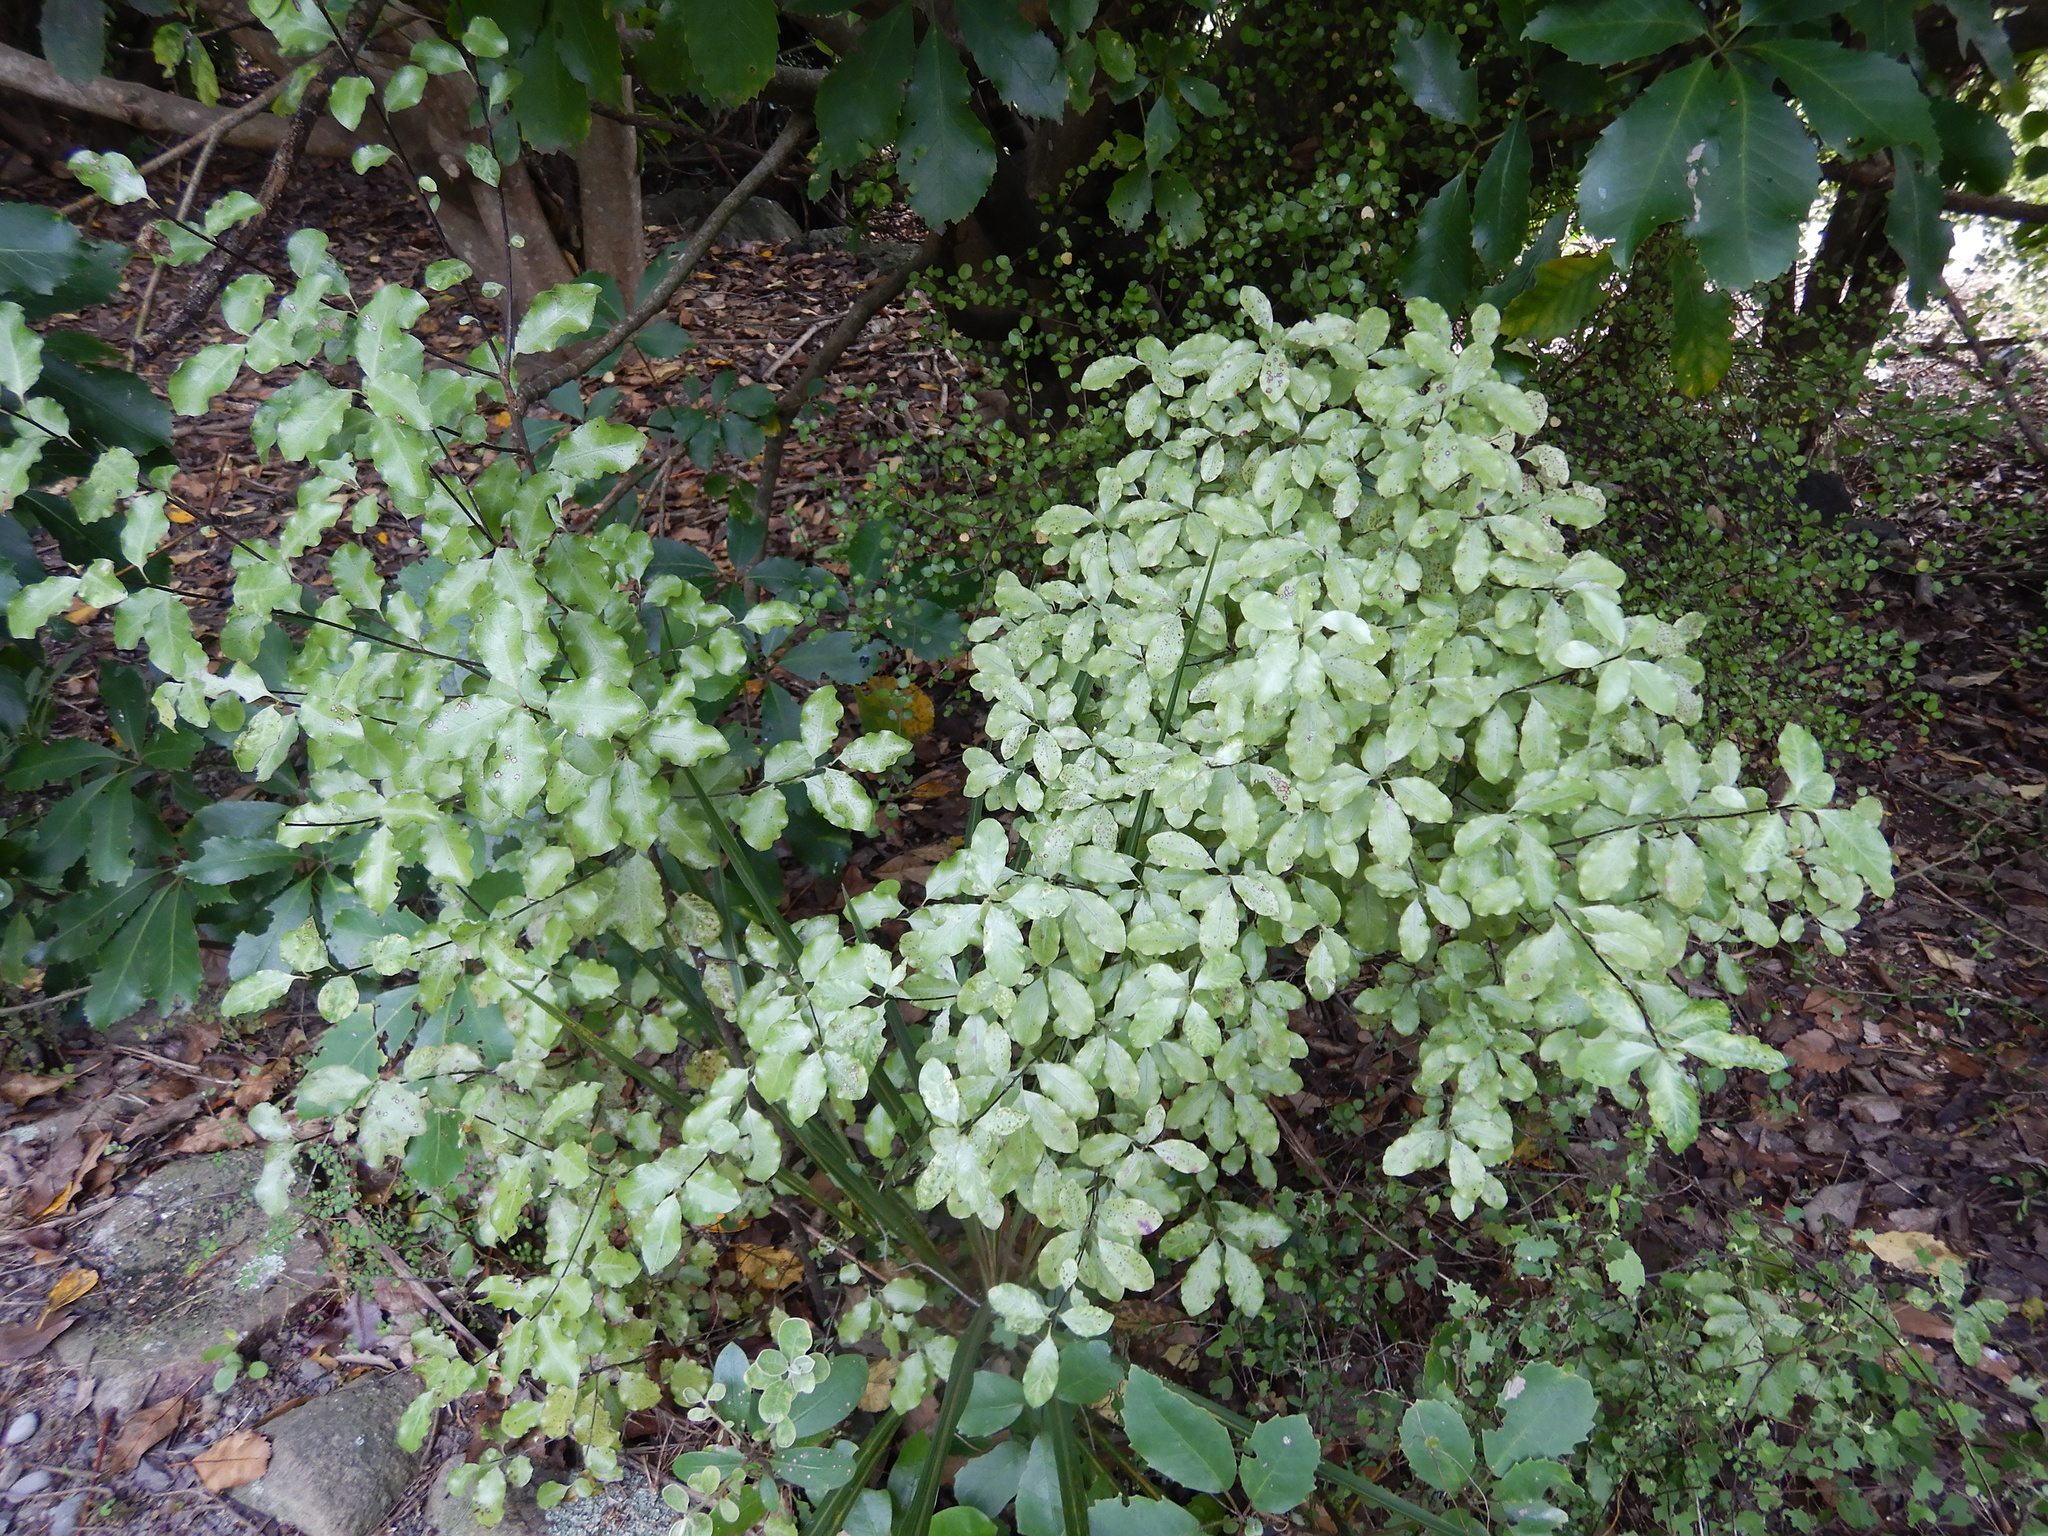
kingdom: Plantae
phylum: Tracheophyta
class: Magnoliopsida
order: Apiales
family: Pittosporaceae
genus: Pittosporum
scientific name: Pittosporum tenuifolium
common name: Kohuhu
